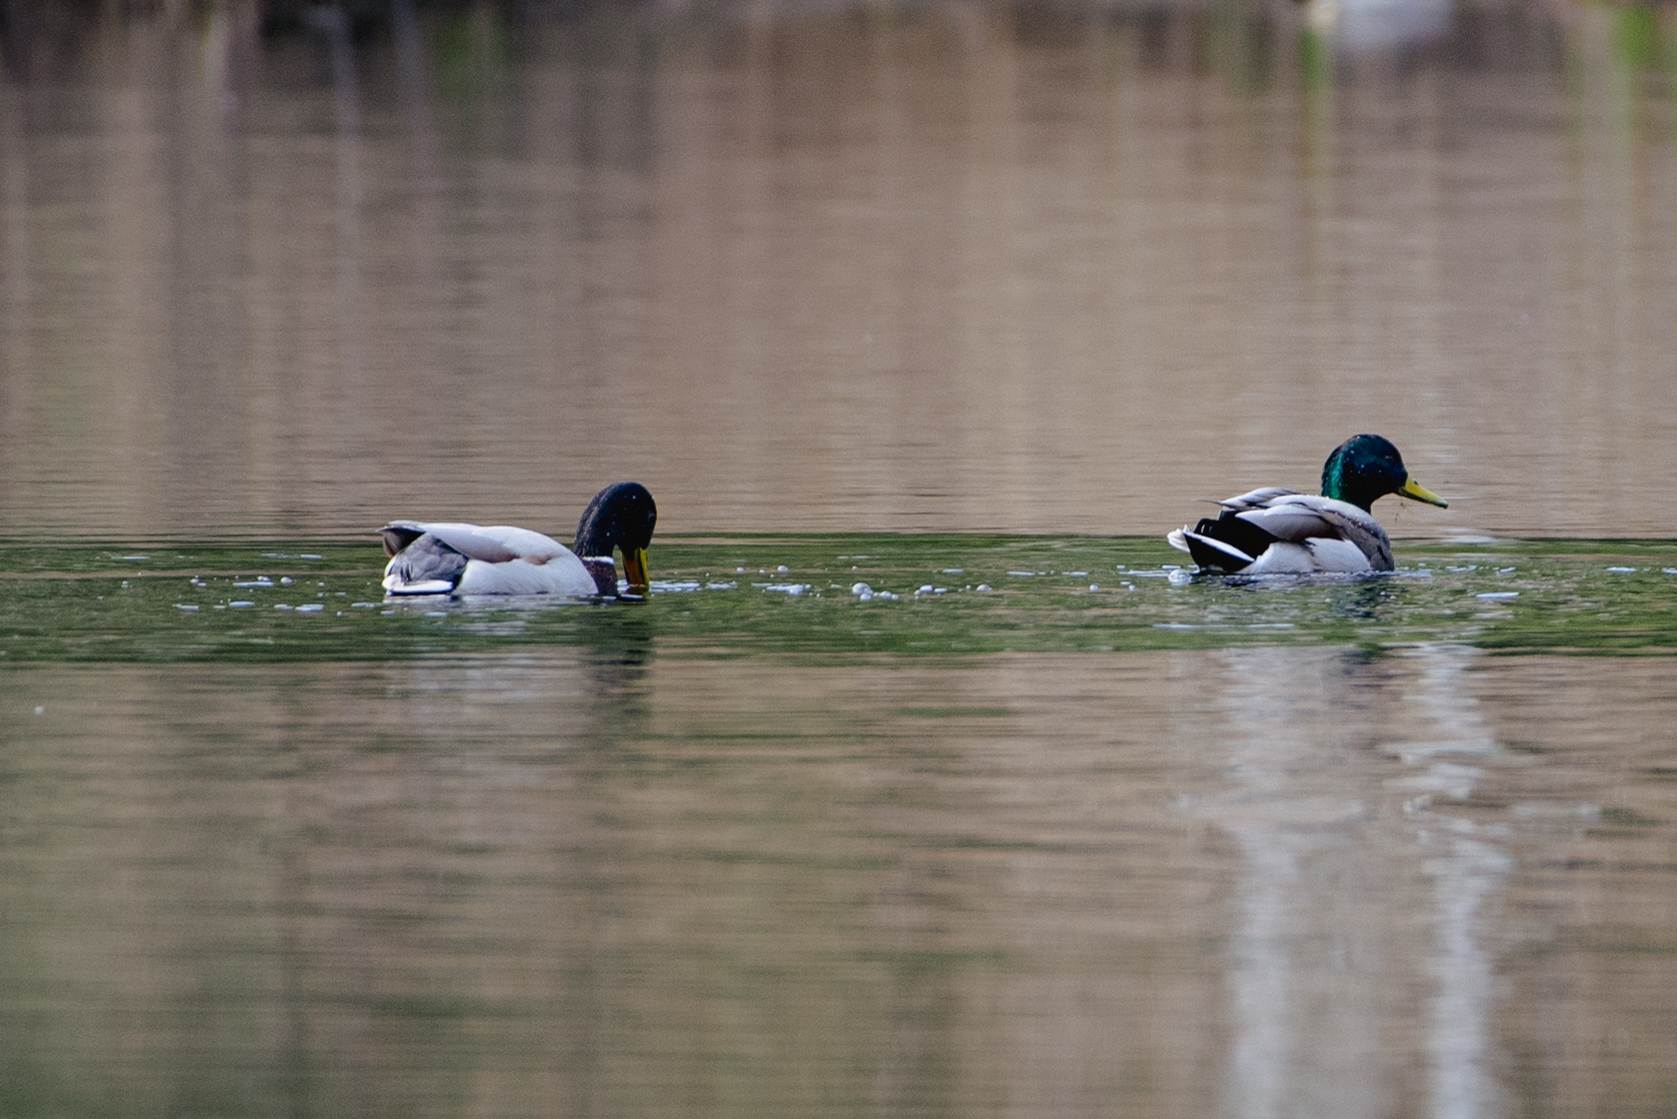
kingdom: Animalia
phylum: Chordata
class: Aves
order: Anseriformes
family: Anatidae
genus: Anas
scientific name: Anas platyrhynchos
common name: Mallard
